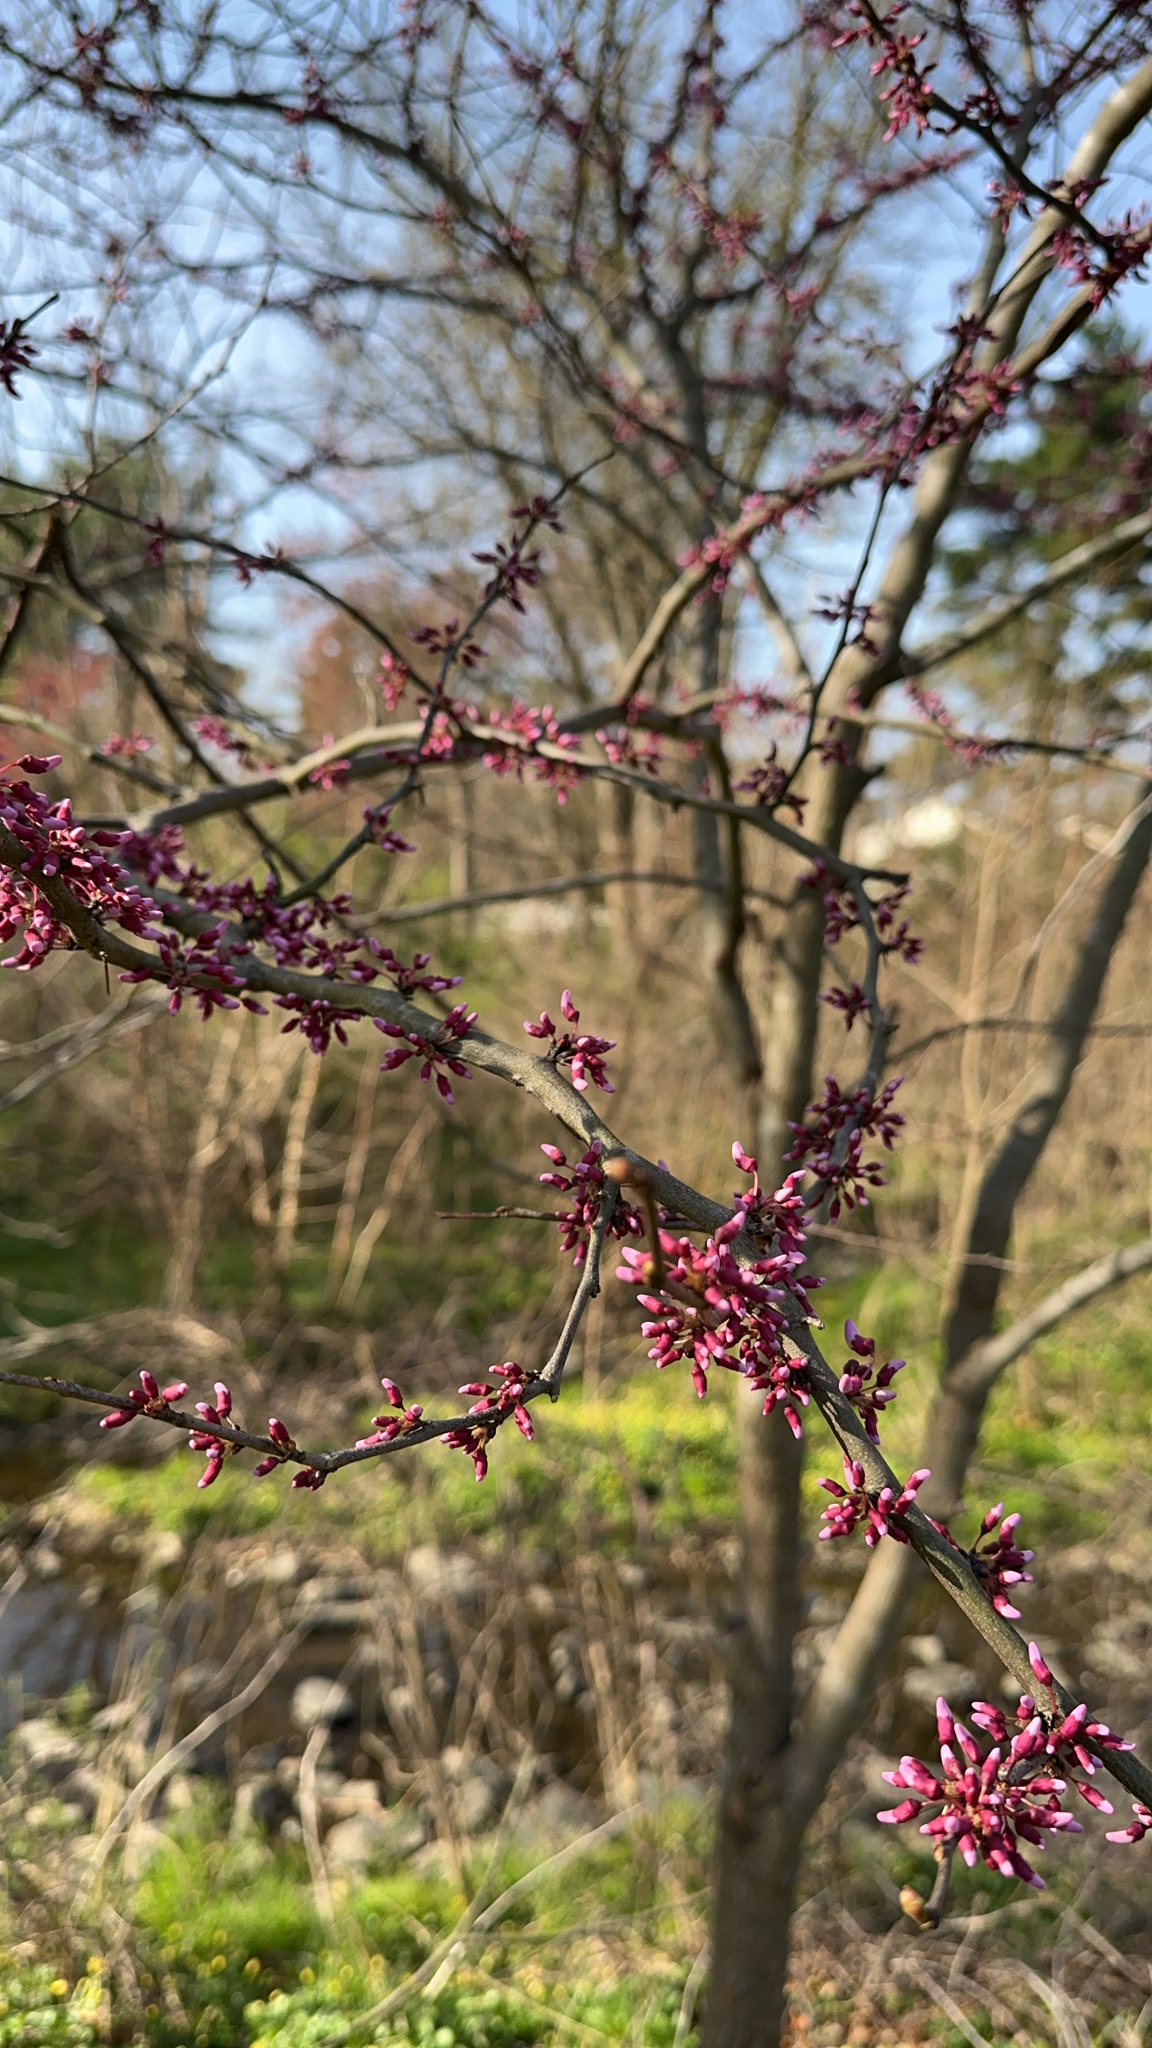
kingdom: Plantae
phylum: Tracheophyta
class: Magnoliopsida
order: Fabales
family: Fabaceae
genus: Cercis
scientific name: Cercis canadensis
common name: Eastern redbud
